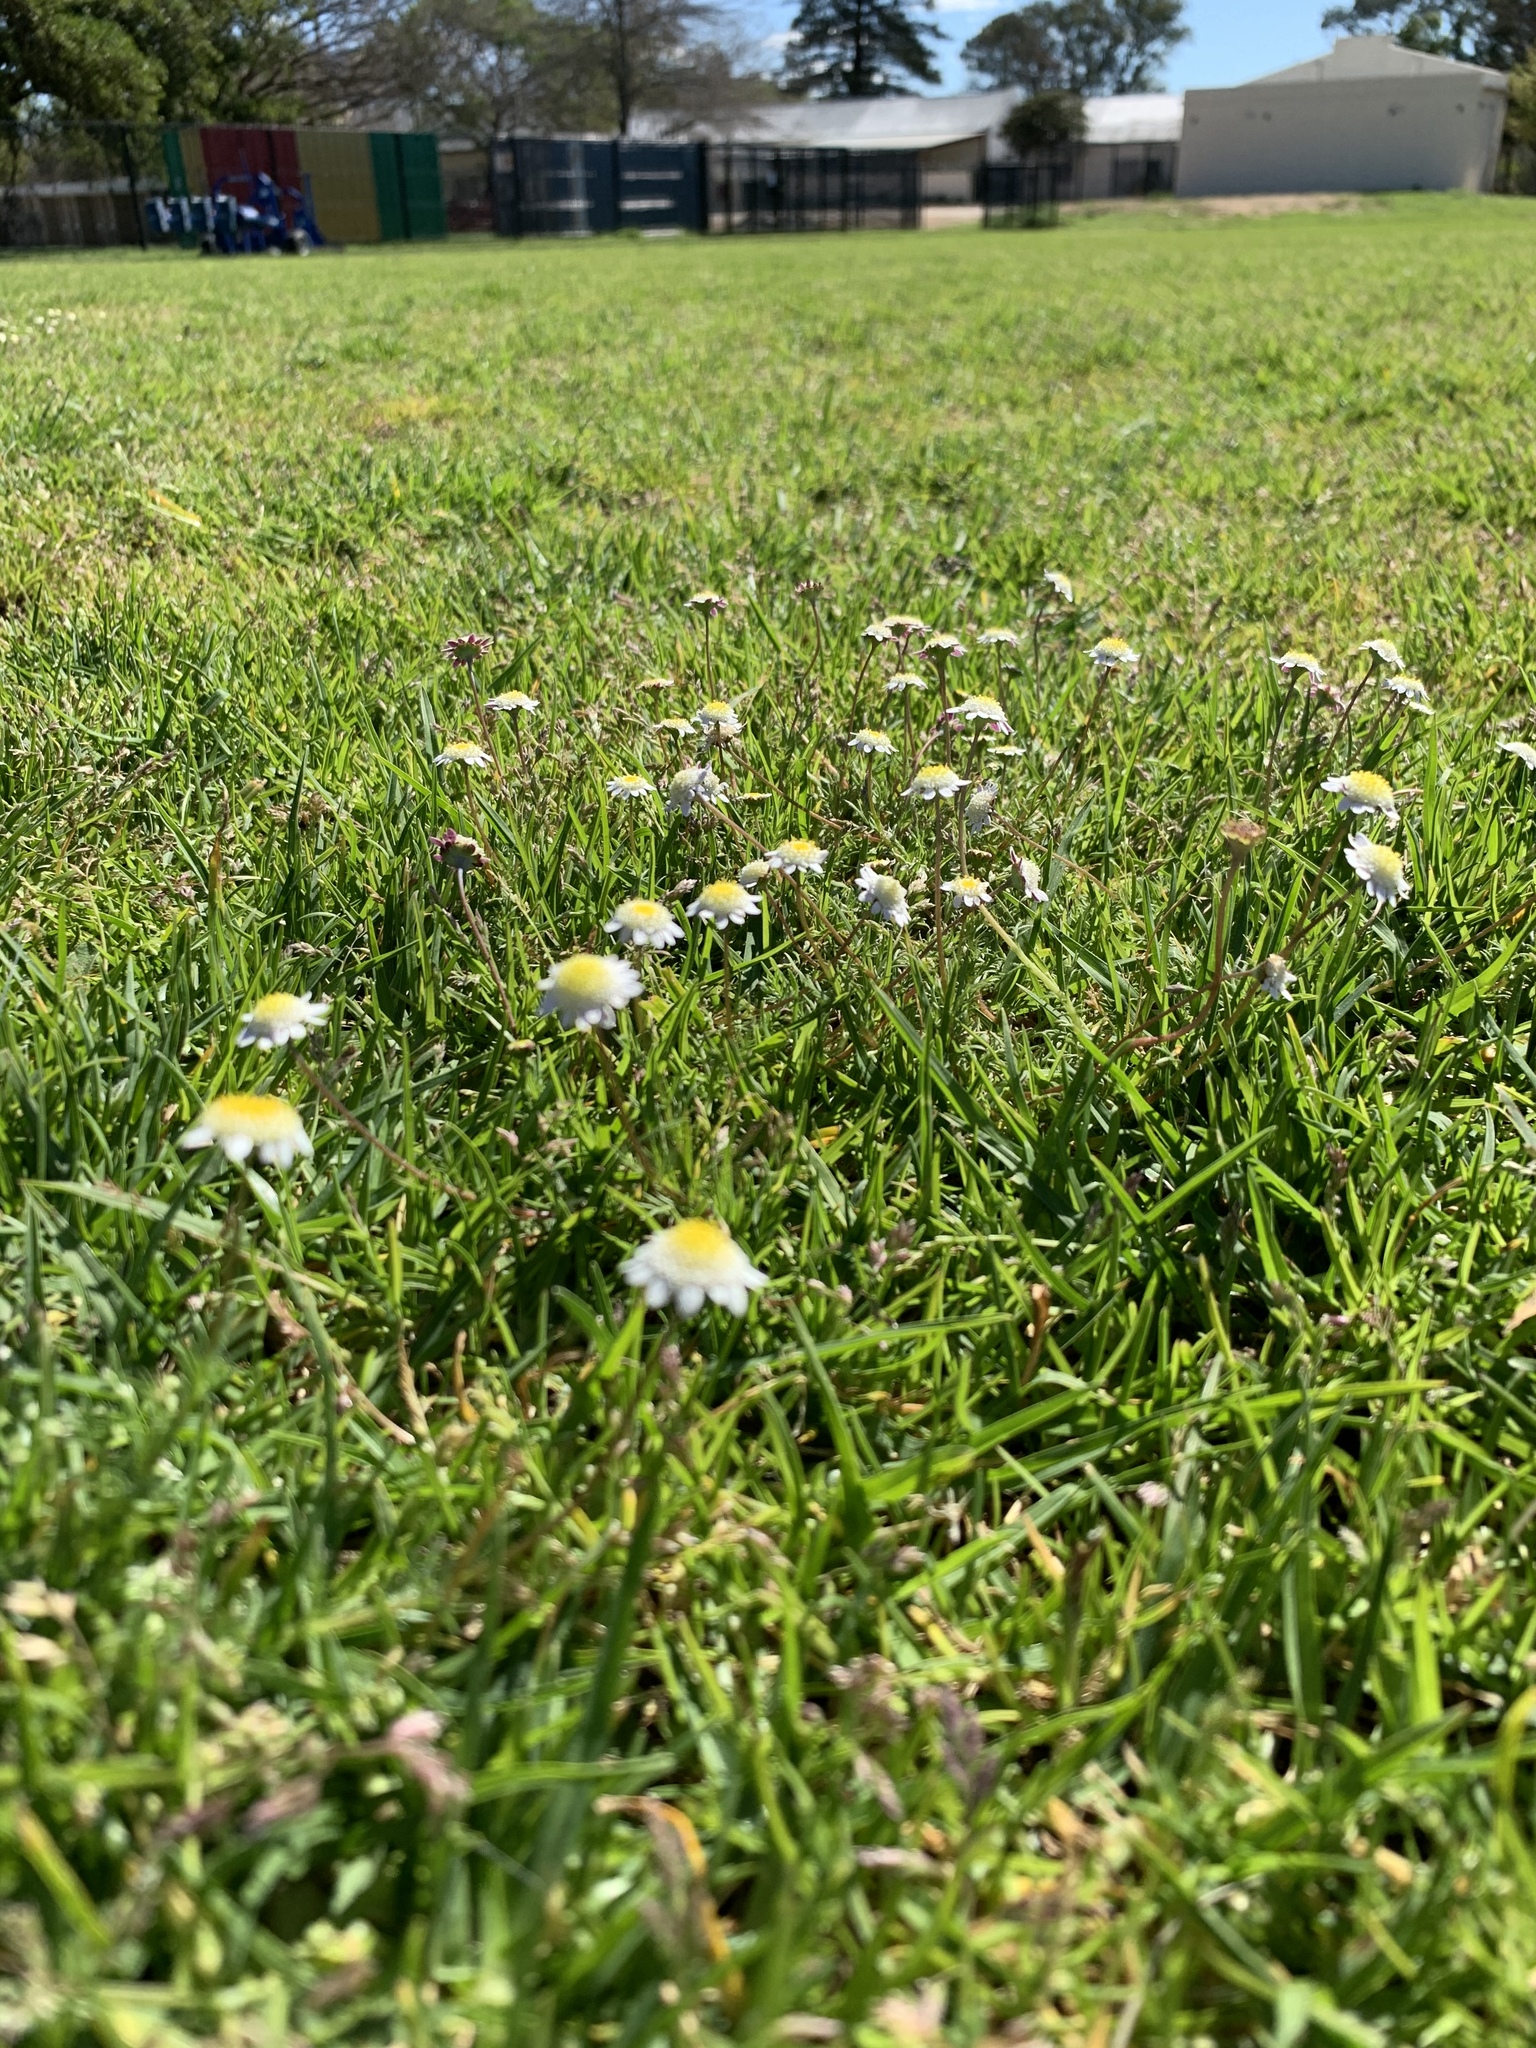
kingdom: Plantae
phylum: Tracheophyta
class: Magnoliopsida
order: Asterales
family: Asteraceae
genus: Cotula
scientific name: Cotula turbinata
